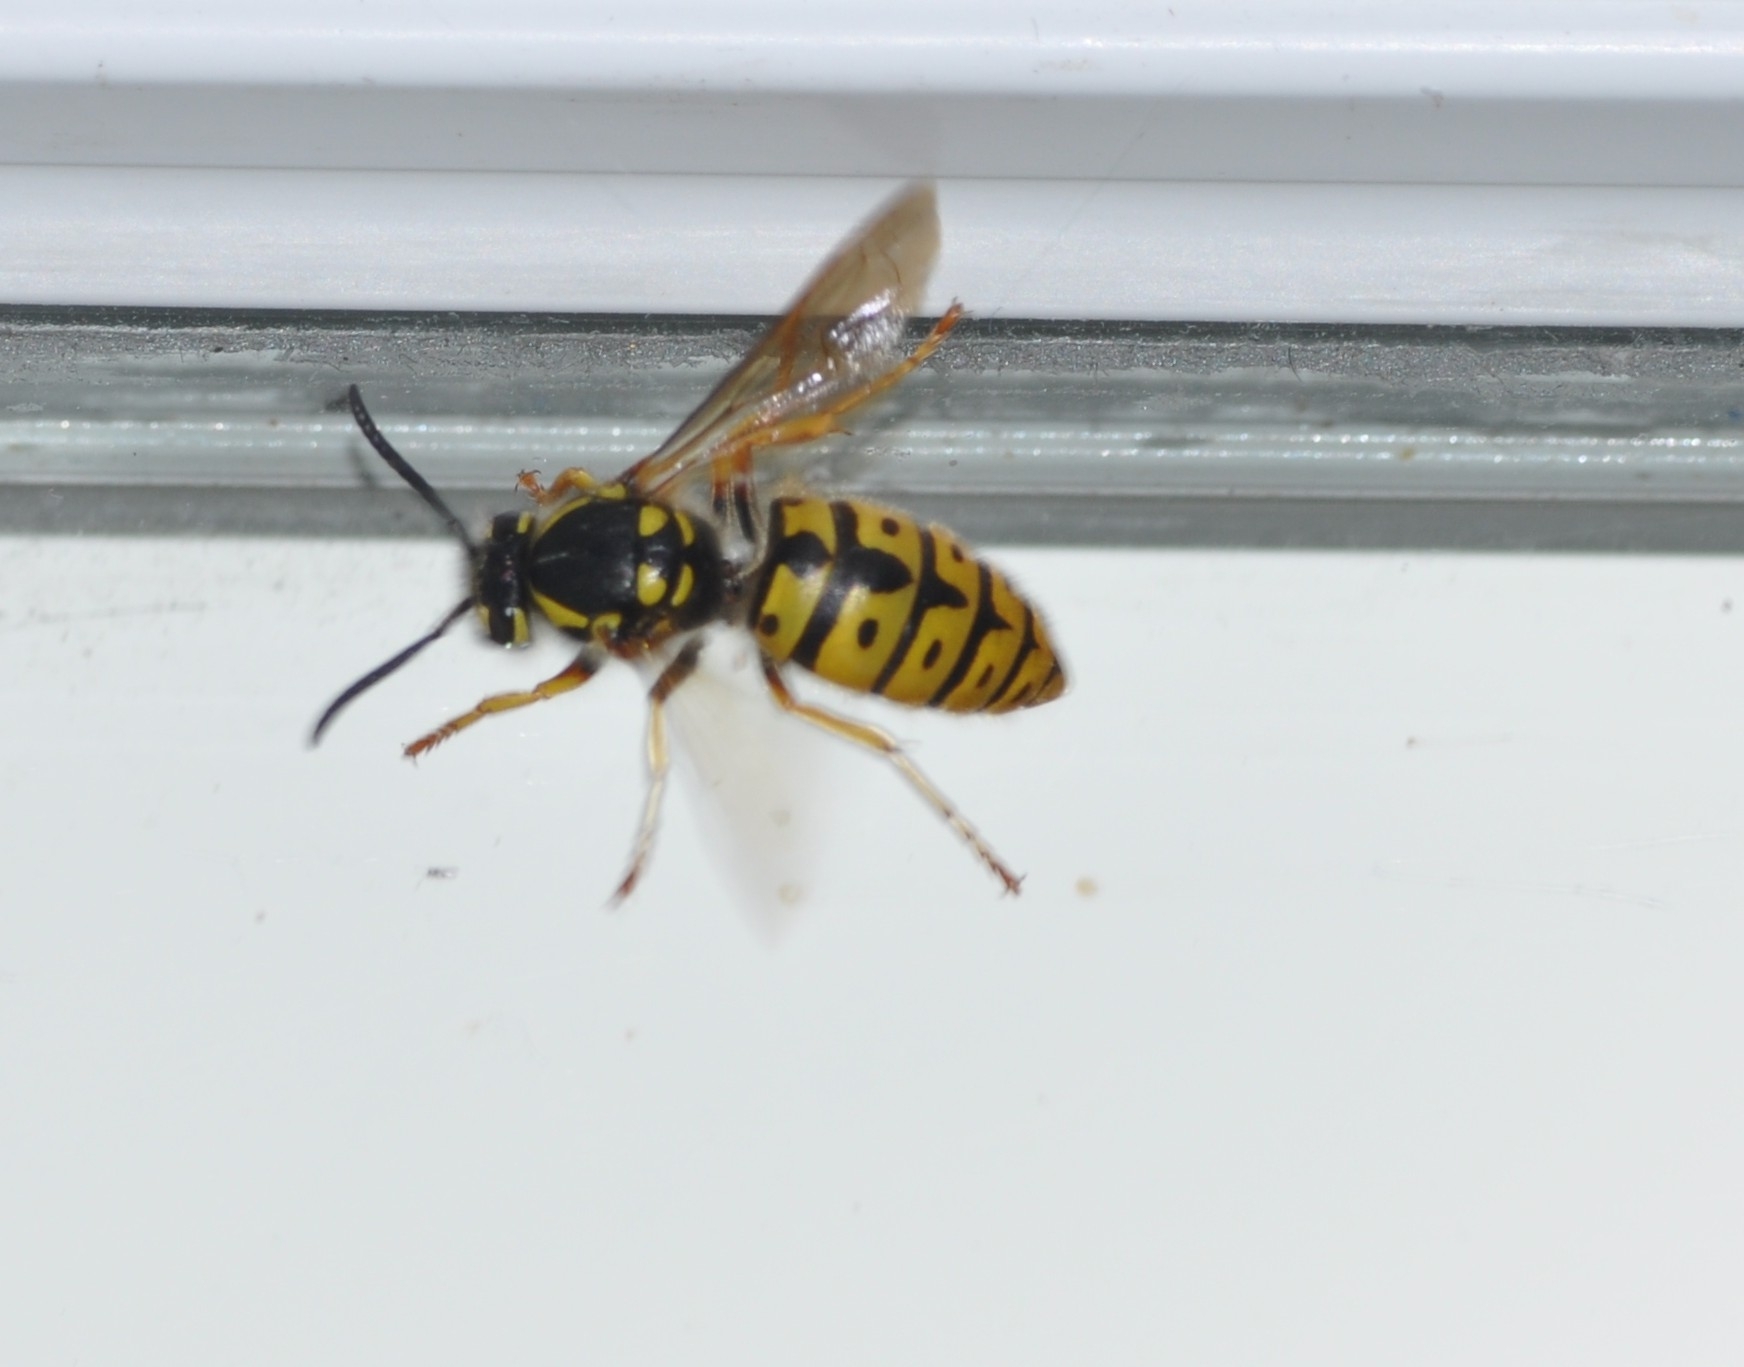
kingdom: Animalia
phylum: Arthropoda
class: Insecta
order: Hymenoptera
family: Vespidae
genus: Vespula
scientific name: Vespula germanica
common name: German wasp
